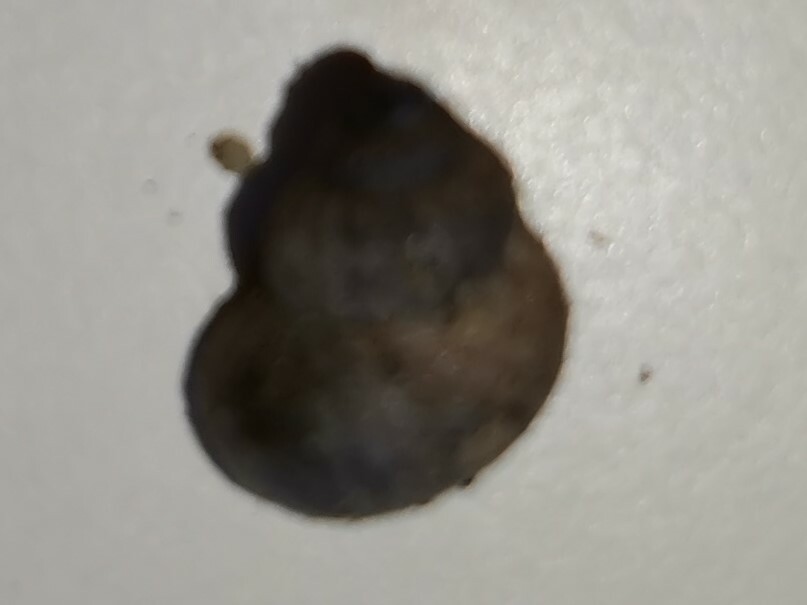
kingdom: Animalia
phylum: Mollusca
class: Gastropoda
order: Littorinimorpha
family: Pomatiidae
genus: Pomatias
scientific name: Pomatias elegans
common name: Red-mouthed snail
